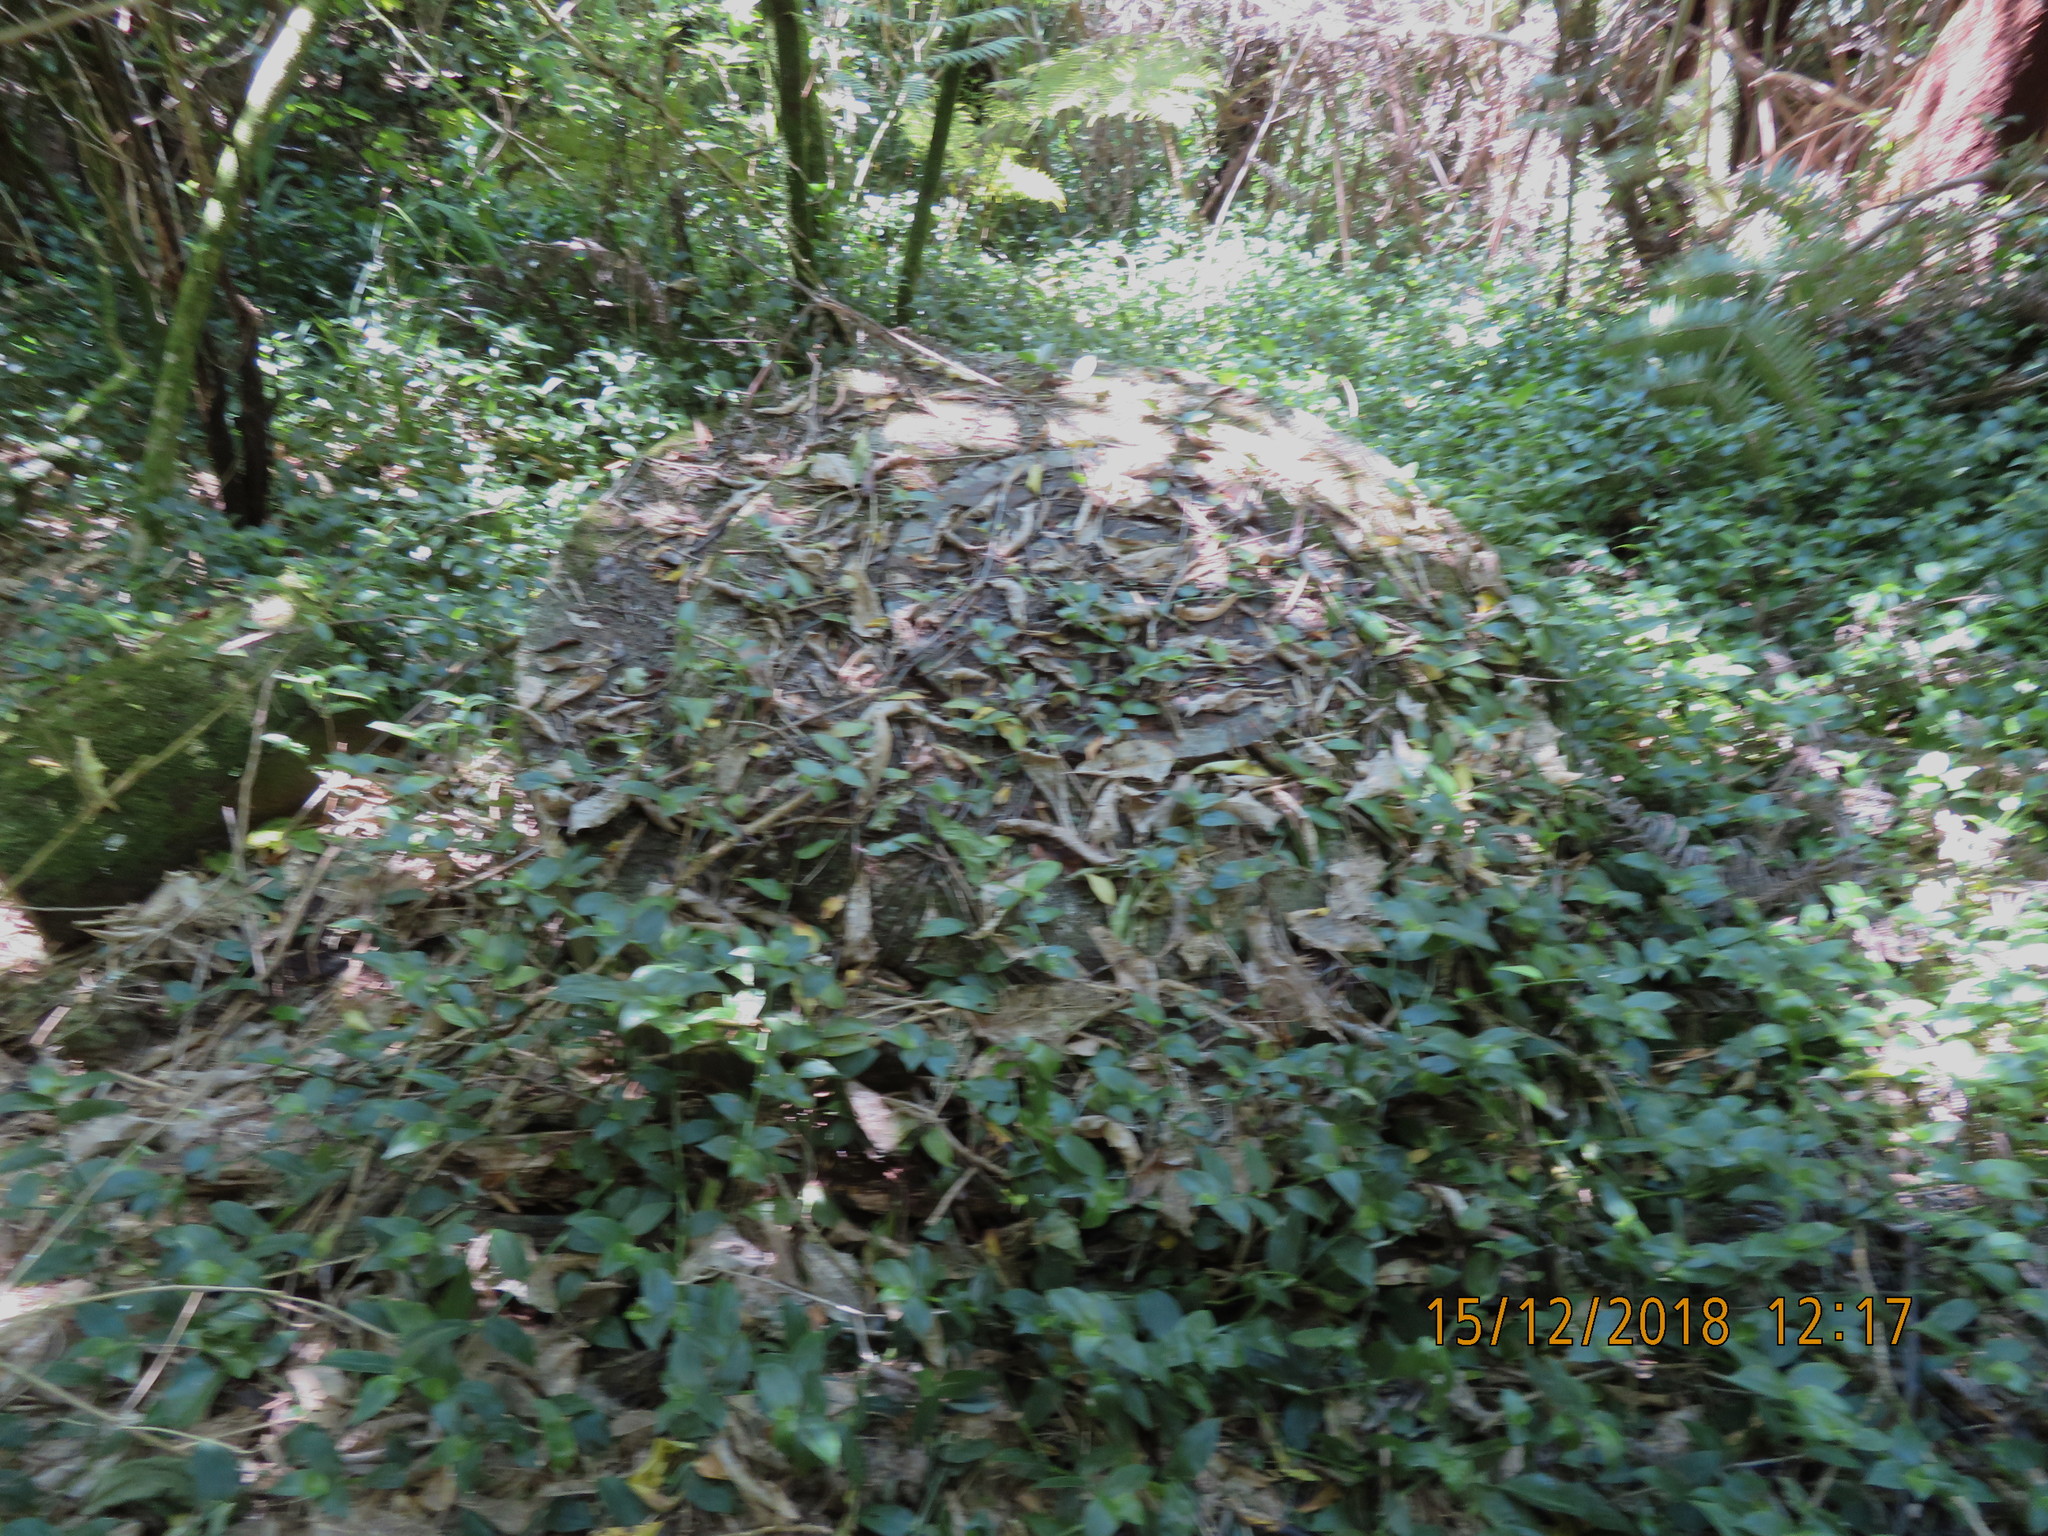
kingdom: Plantae
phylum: Tracheophyta
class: Liliopsida
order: Commelinales
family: Commelinaceae
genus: Tradescantia
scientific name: Tradescantia fluminensis
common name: Wandering-jew
